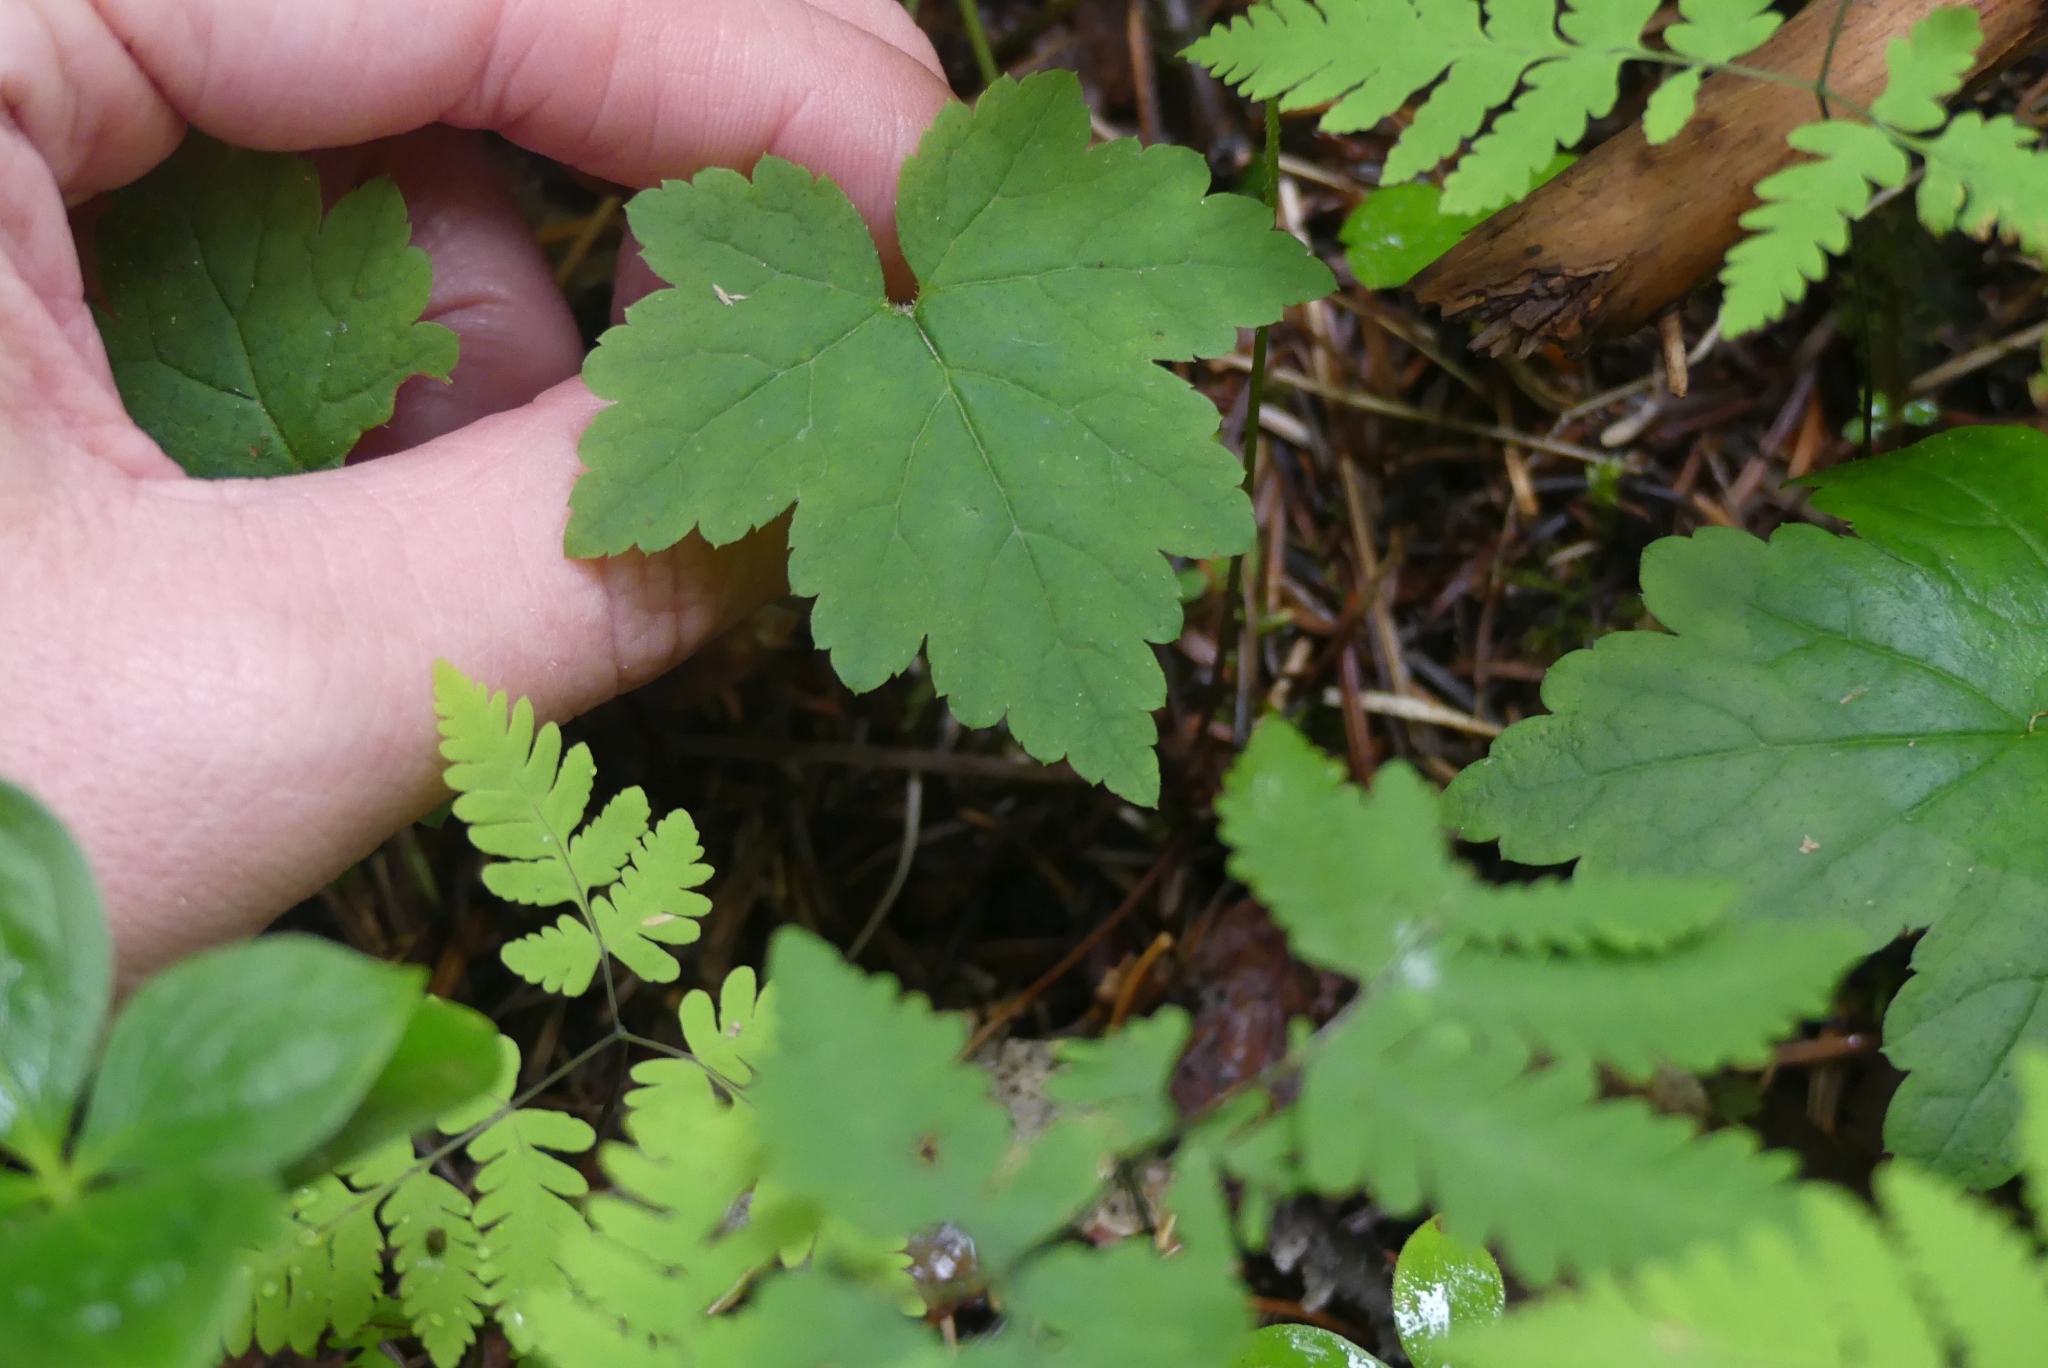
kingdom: Plantae
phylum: Tracheophyta
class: Magnoliopsida
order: Saxifragales
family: Saxifragaceae
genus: Tiarella
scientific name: Tiarella trifoliata
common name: Sugar-scoop
